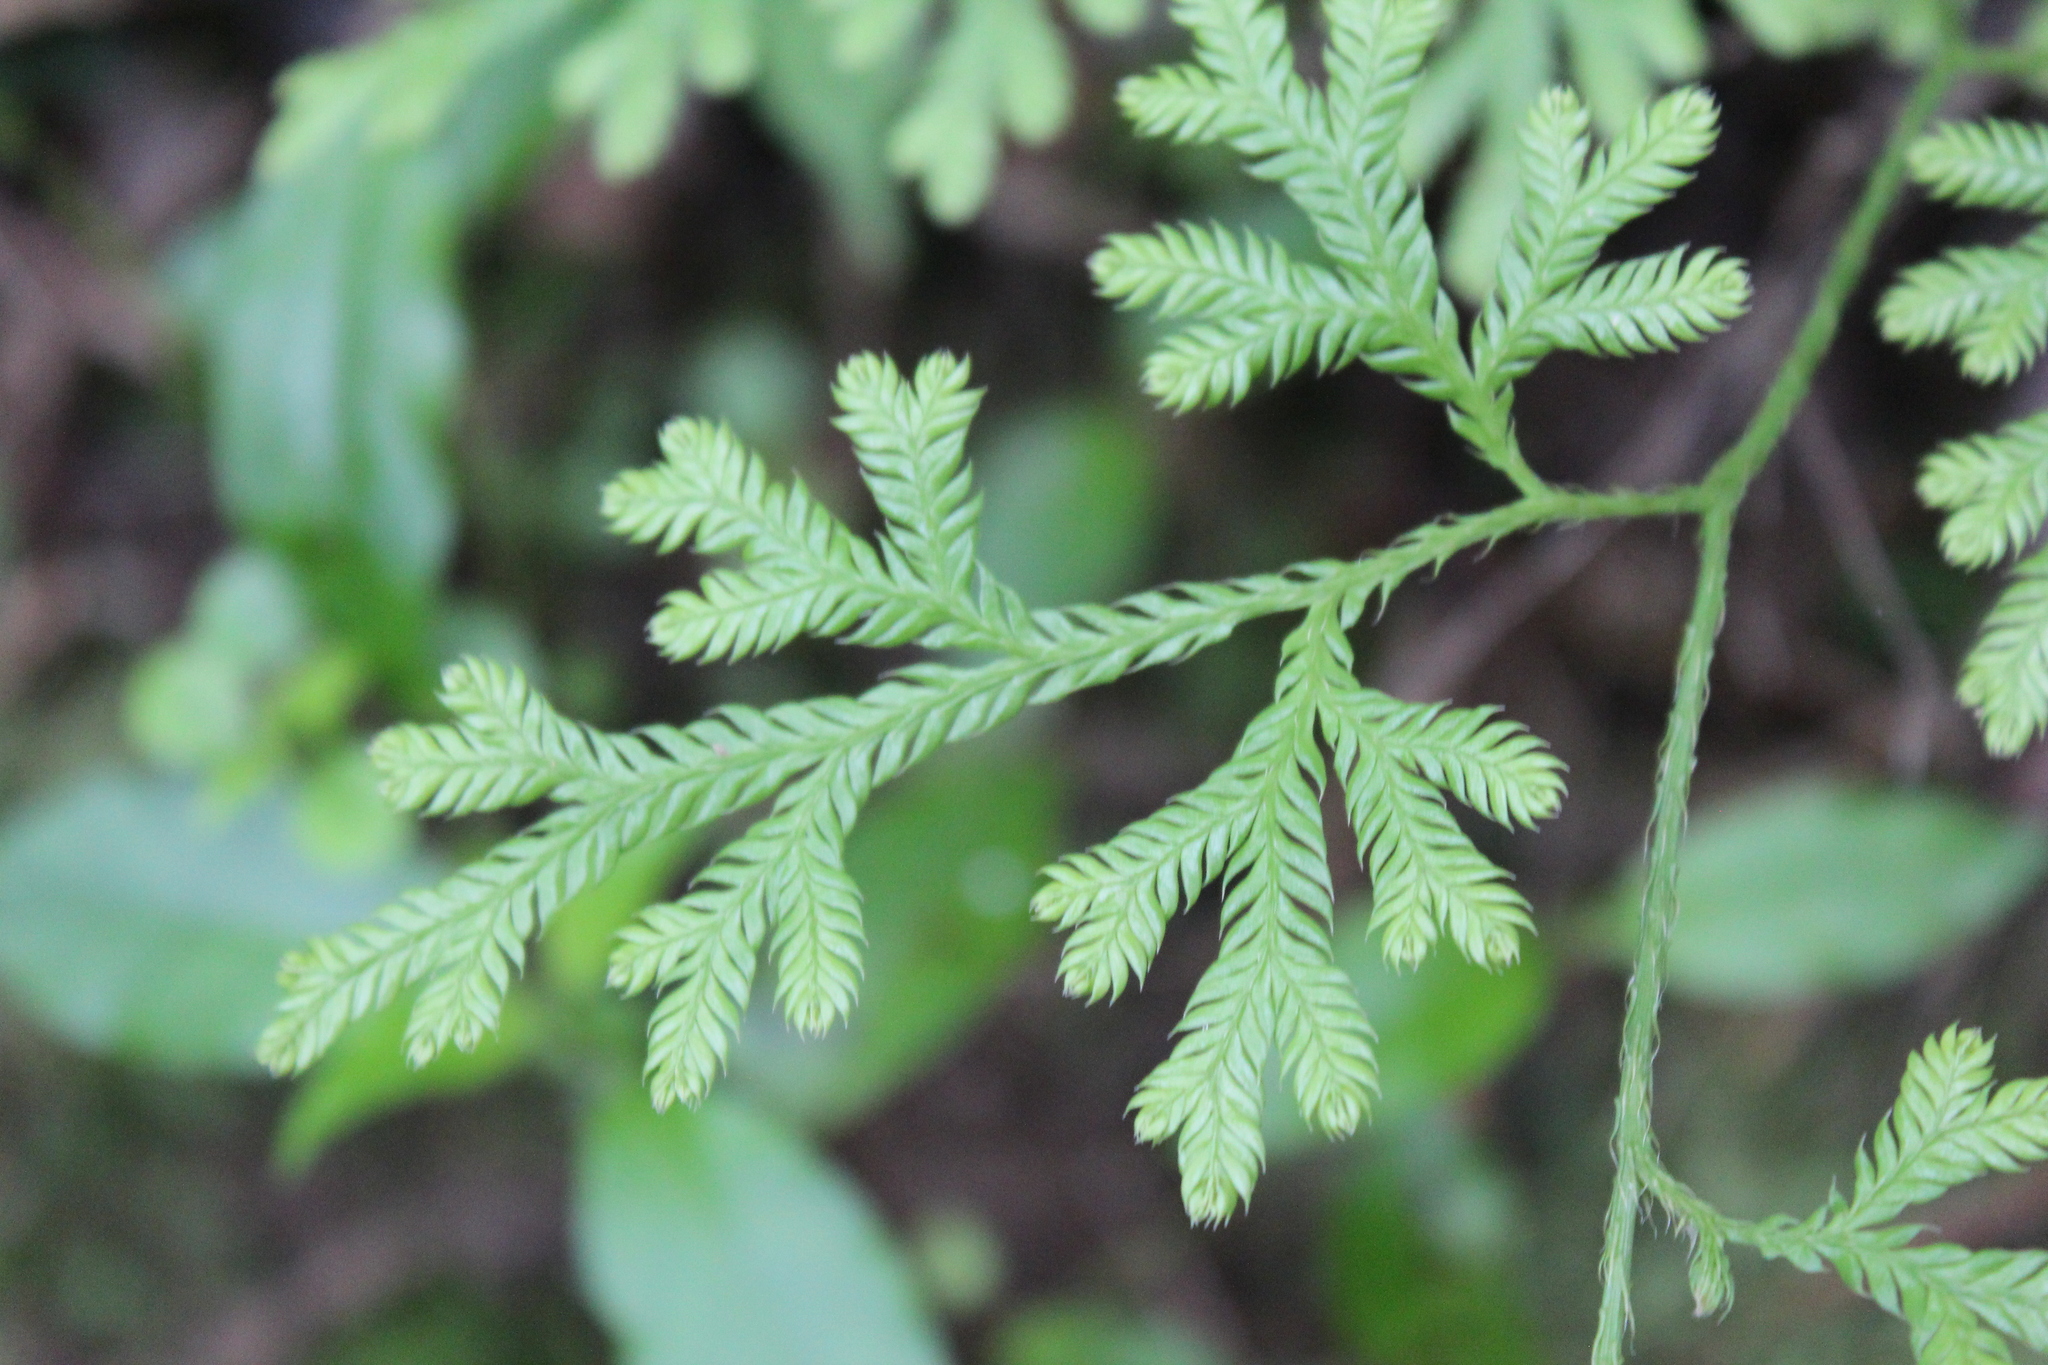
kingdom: Plantae
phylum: Tracheophyta
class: Lycopodiopsida
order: Lycopodiales
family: Lycopodiaceae
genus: Lycopodium
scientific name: Lycopodium volubile
